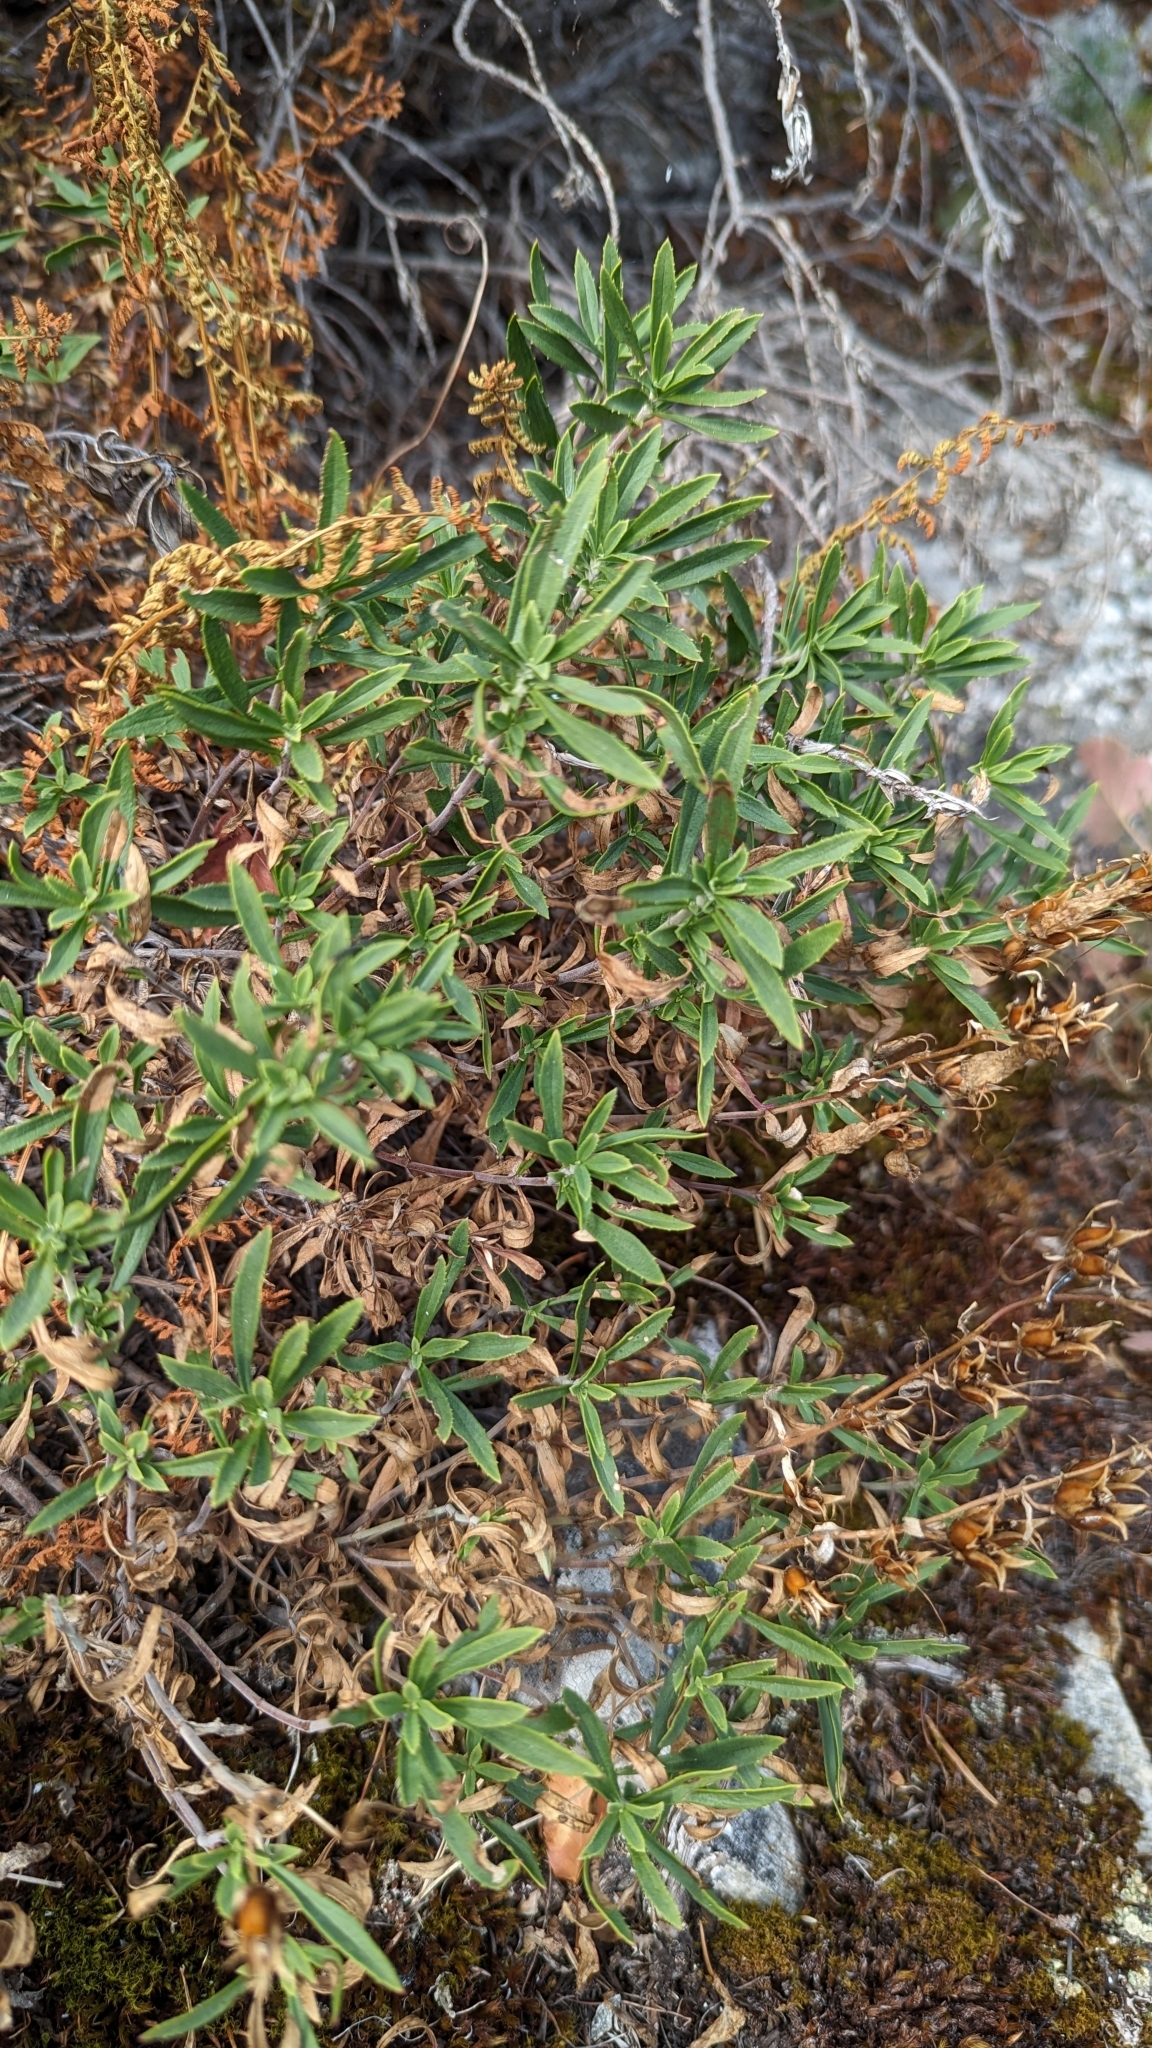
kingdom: Plantae
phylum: Tracheophyta
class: Magnoliopsida
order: Lamiales
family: Plantaginaceae
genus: Penstemon
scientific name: Penstemon fruticosus
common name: Bush penstemon
